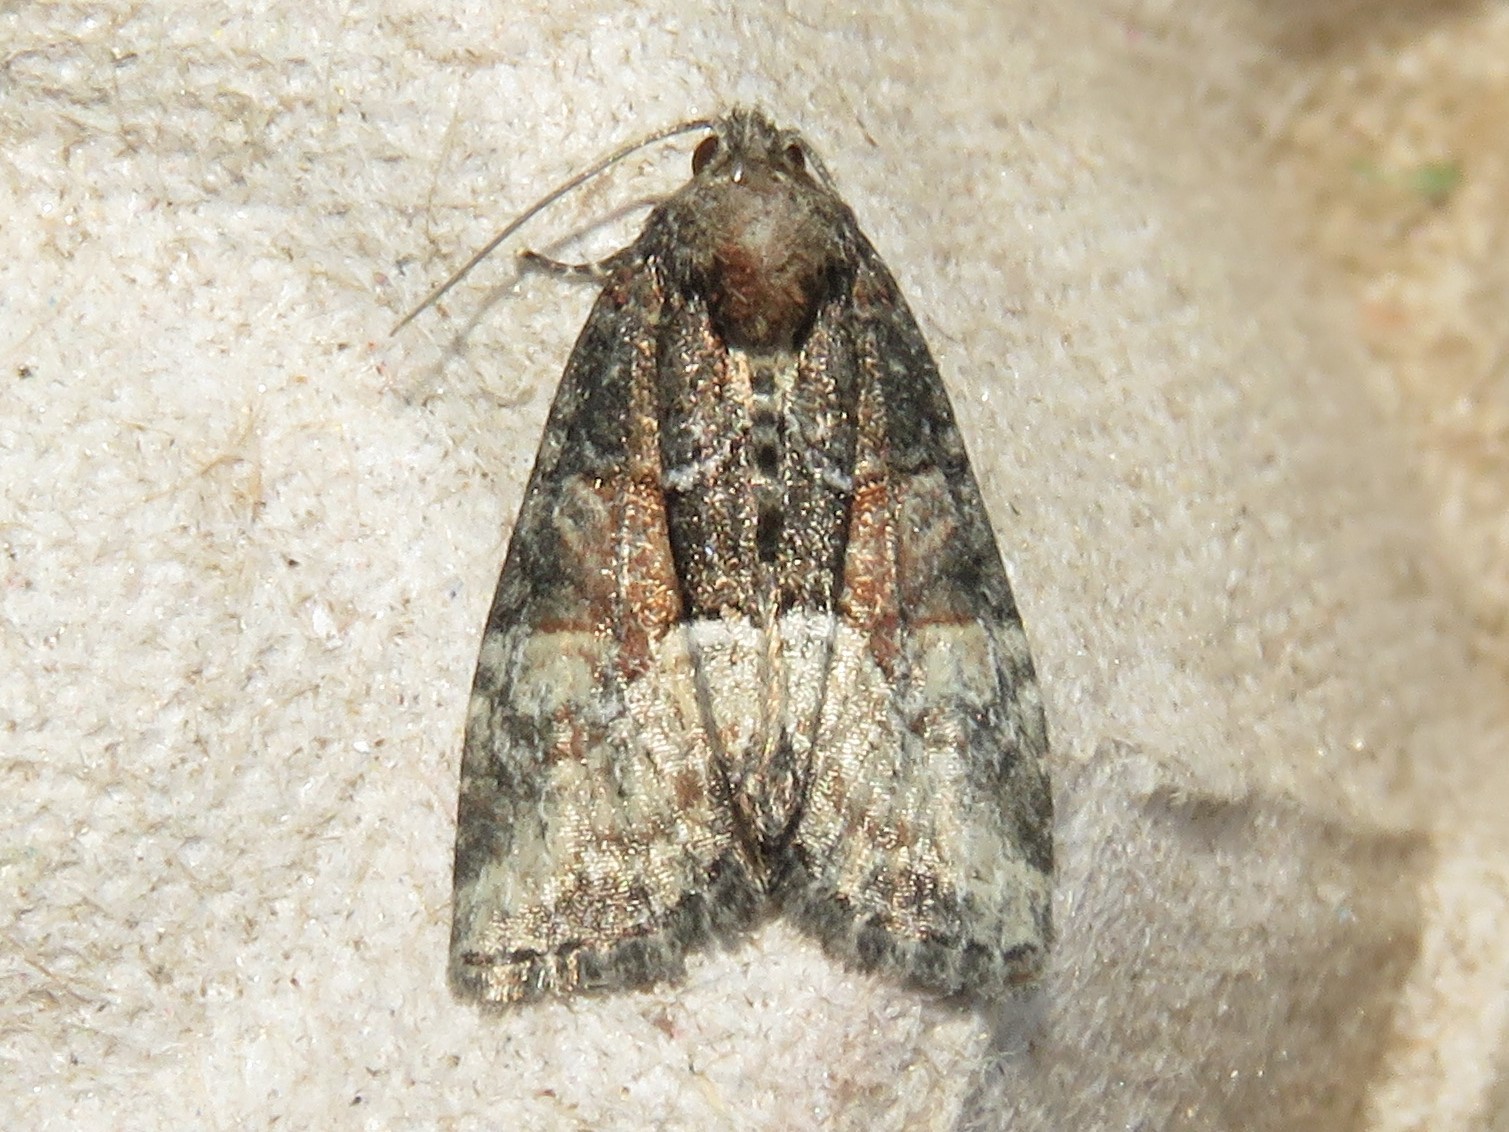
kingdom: Animalia
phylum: Arthropoda
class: Insecta
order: Lepidoptera
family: Noctuidae
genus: Neoligia
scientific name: Neoligia subjuncta
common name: Connected brocade
